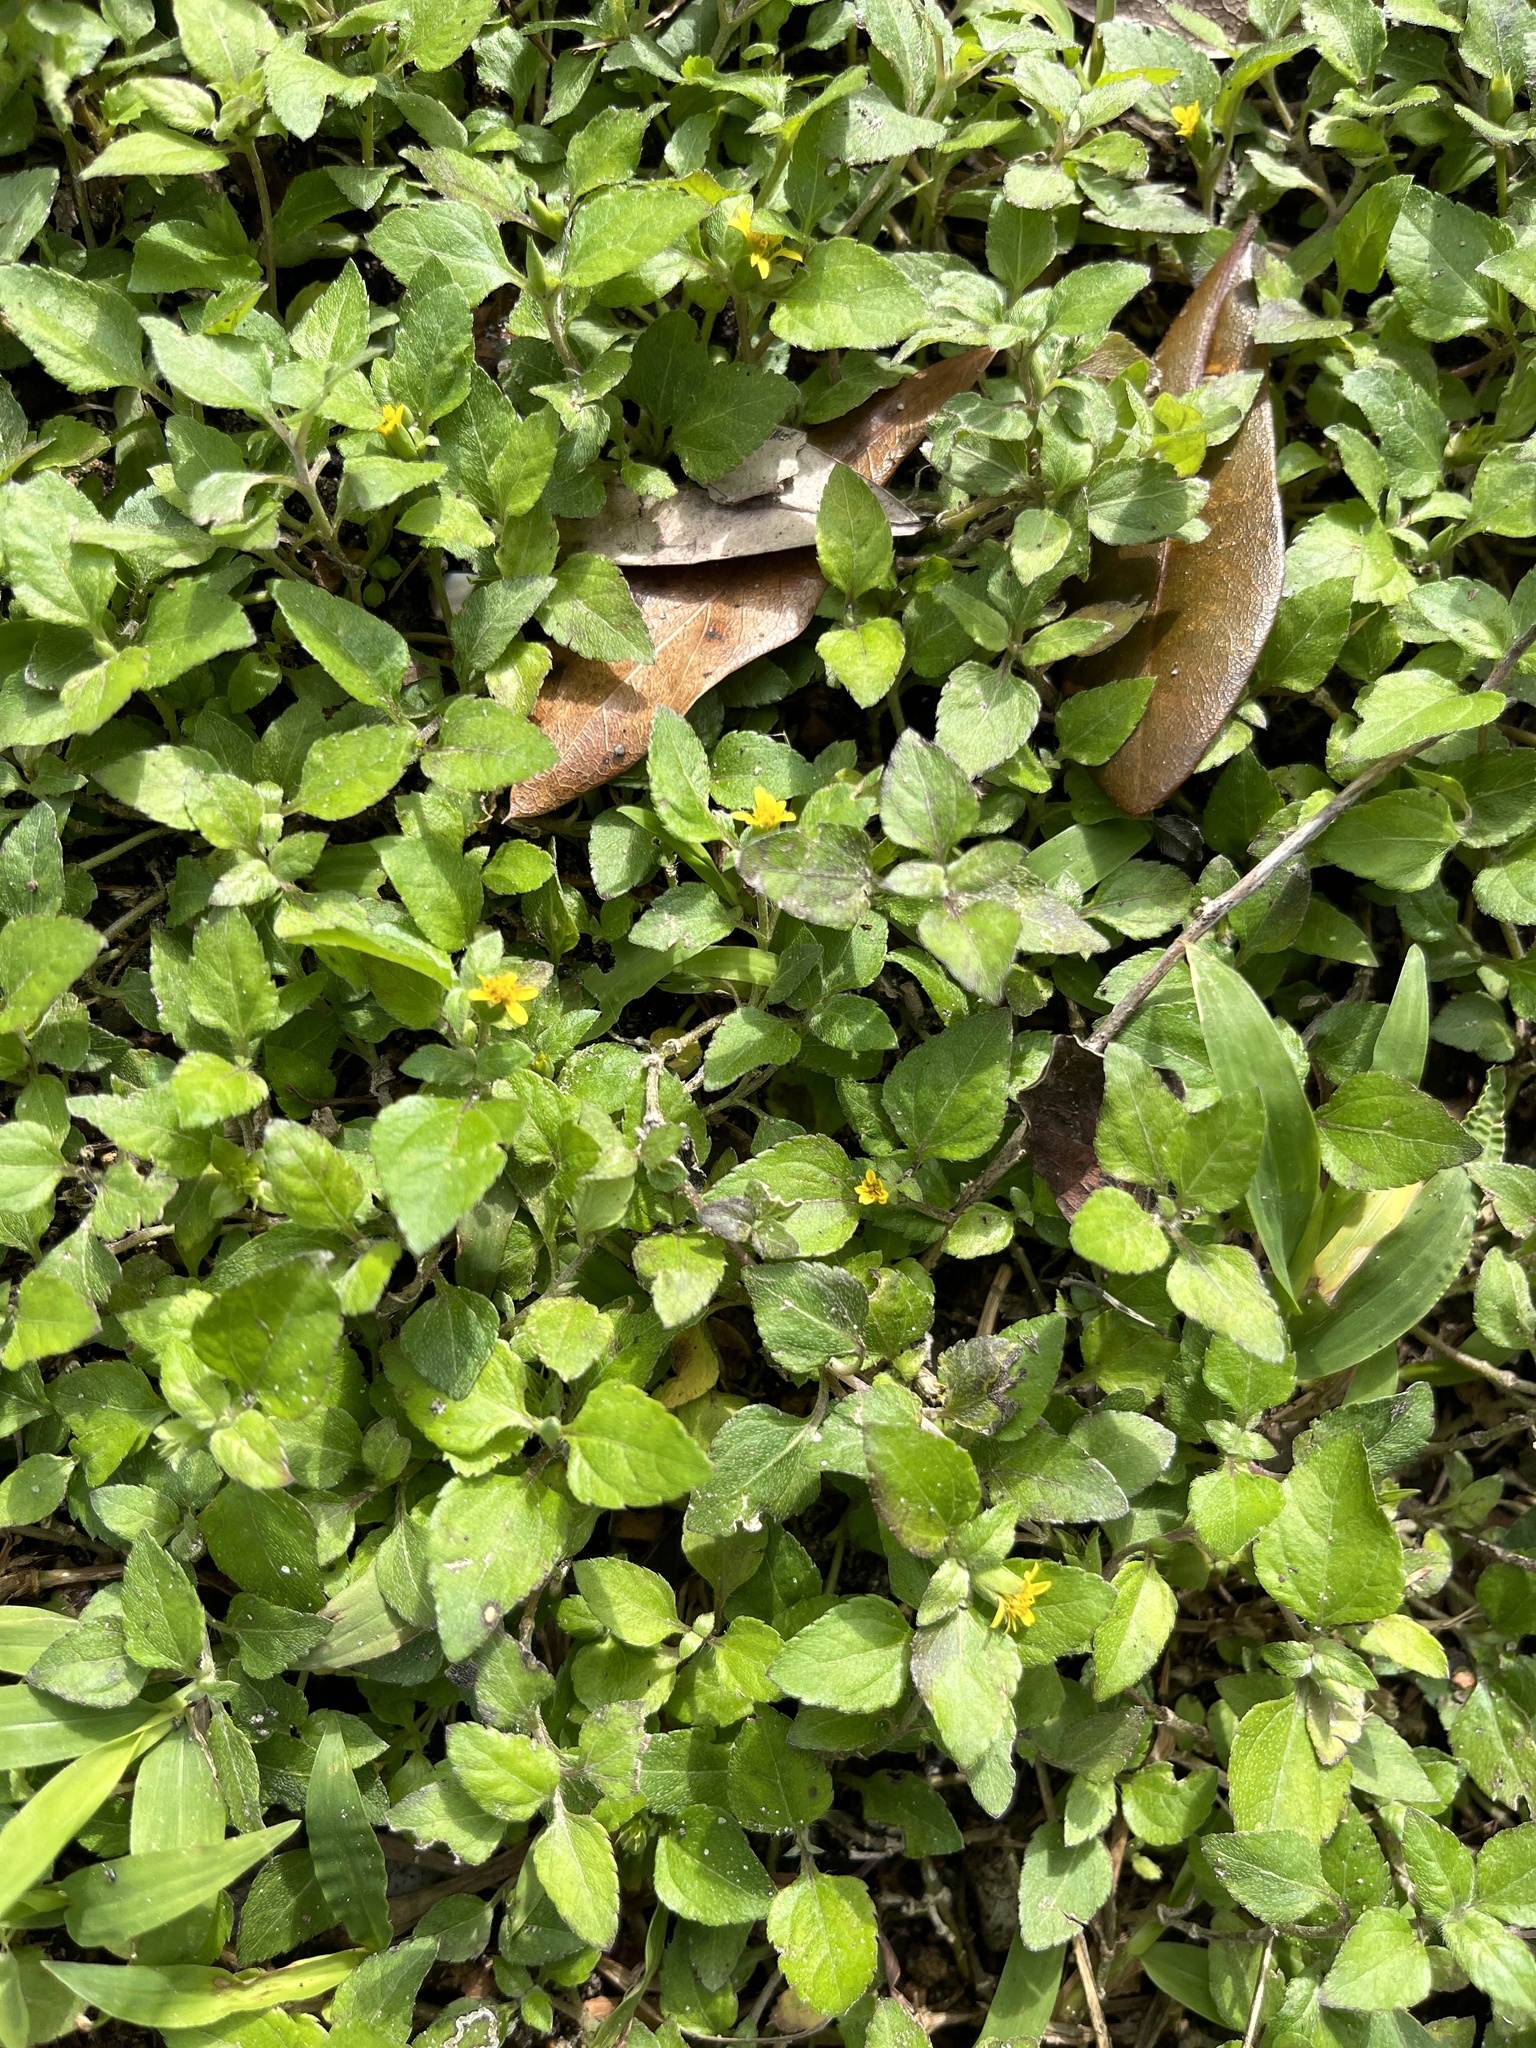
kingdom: Plantae
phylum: Tracheophyta
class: Magnoliopsida
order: Asterales
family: Asteraceae
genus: Calyptocarpus
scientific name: Calyptocarpus vialis
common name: Straggler daisy
